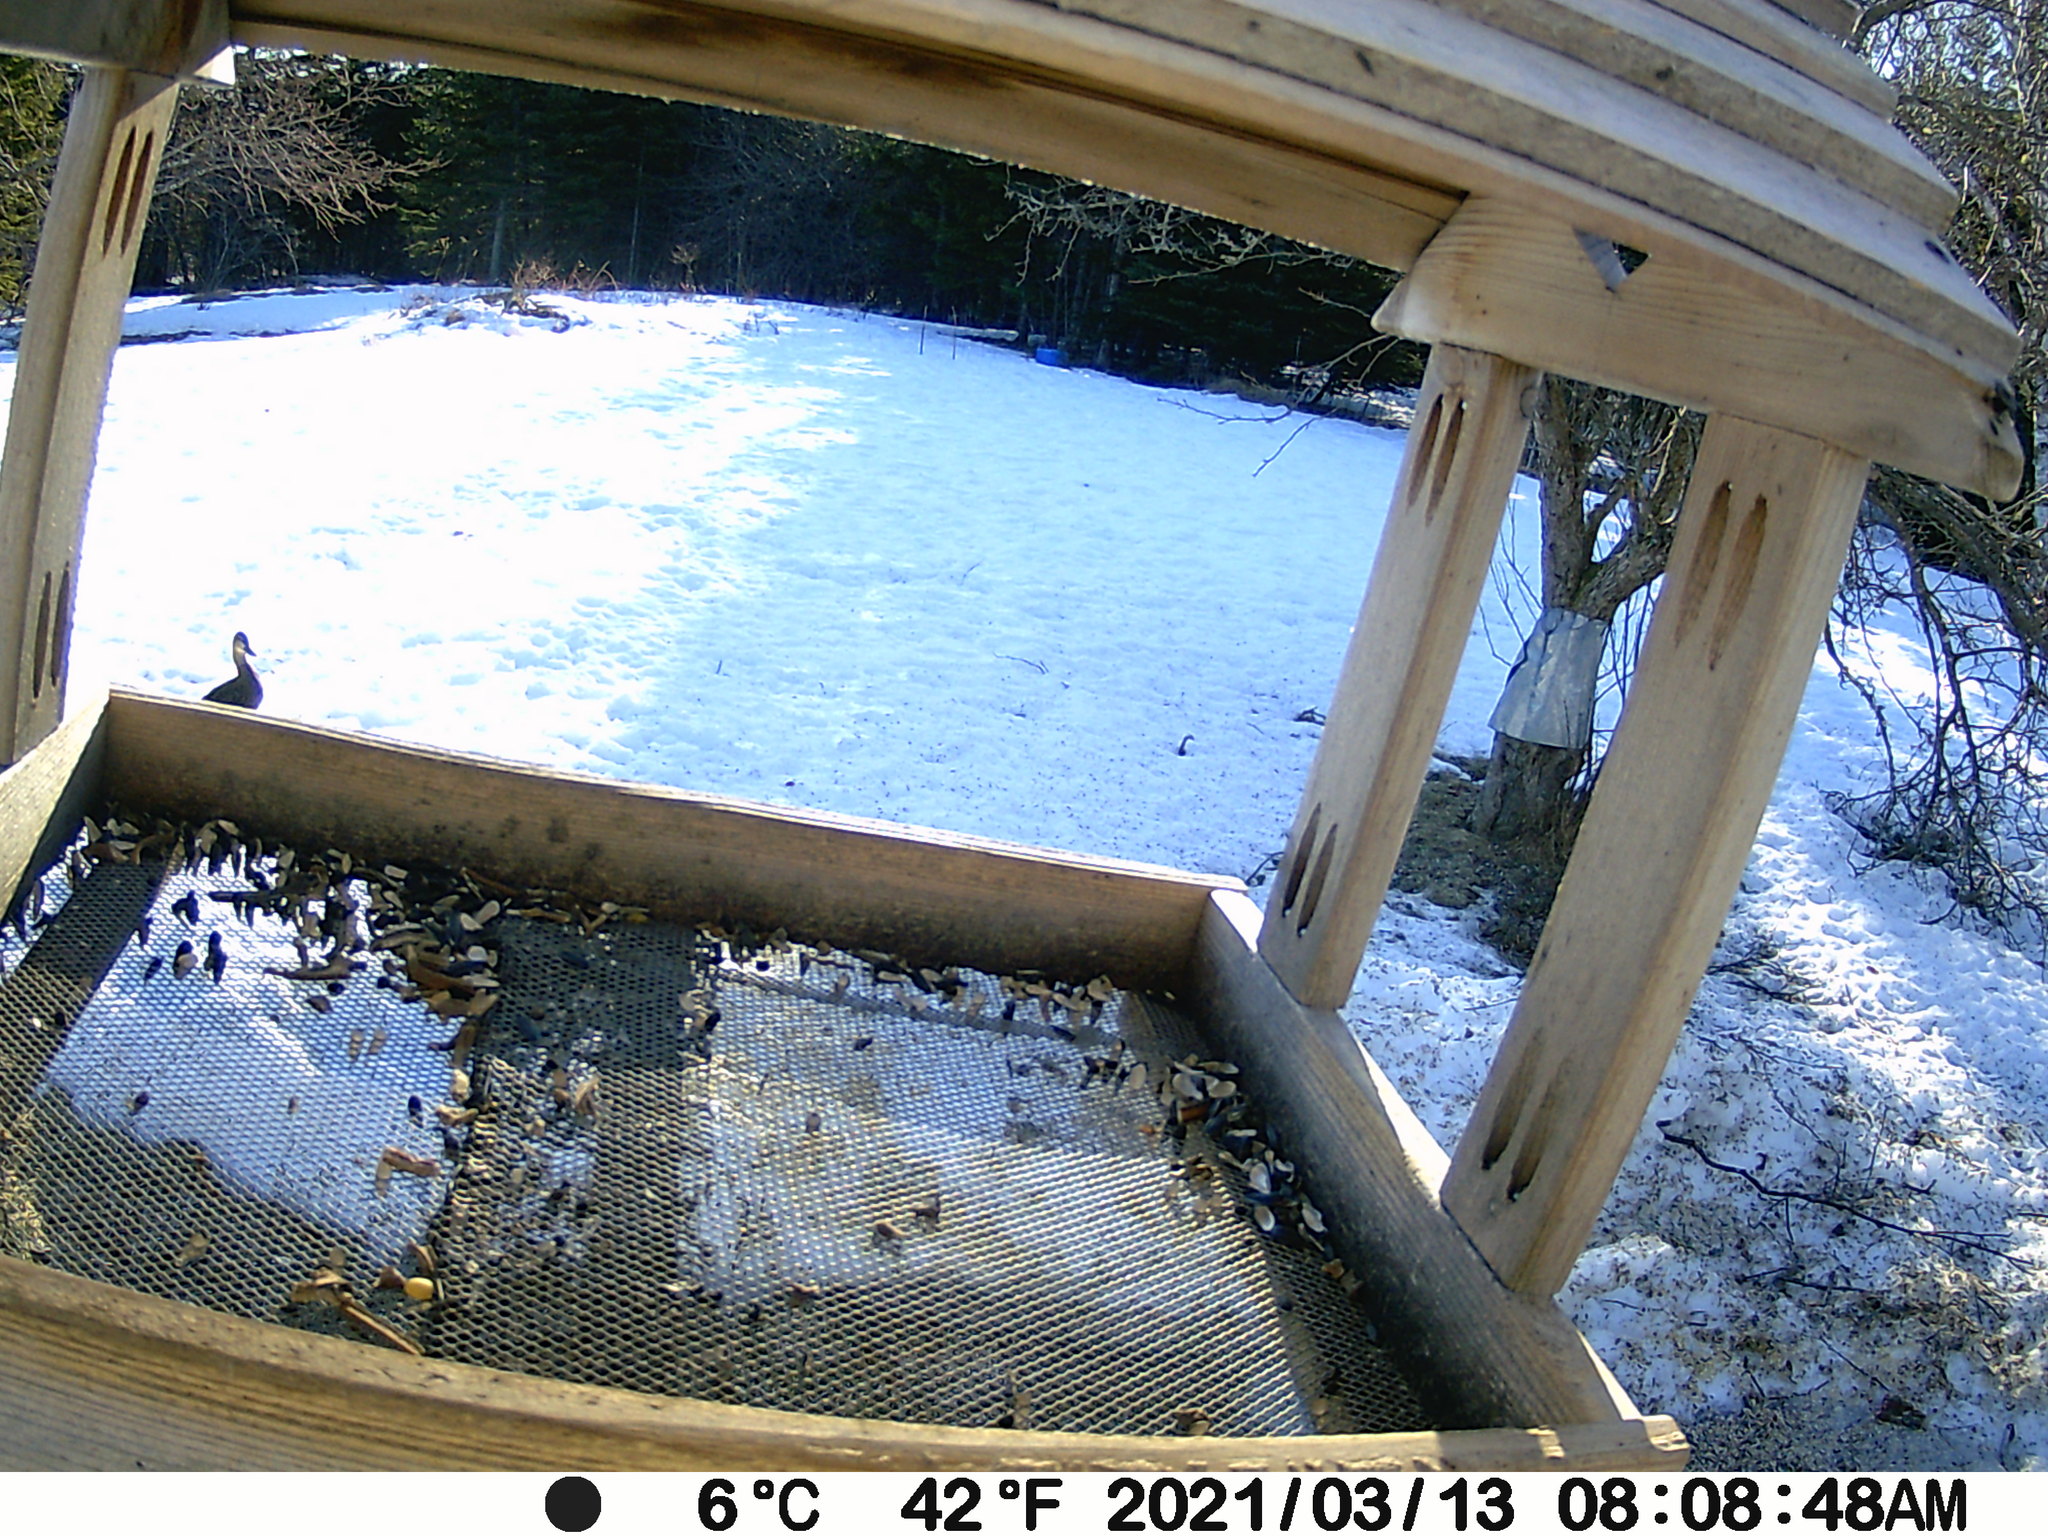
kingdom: Animalia
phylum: Chordata
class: Aves
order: Anseriformes
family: Anatidae
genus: Anas
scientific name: Anas rubripes
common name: American black duck
